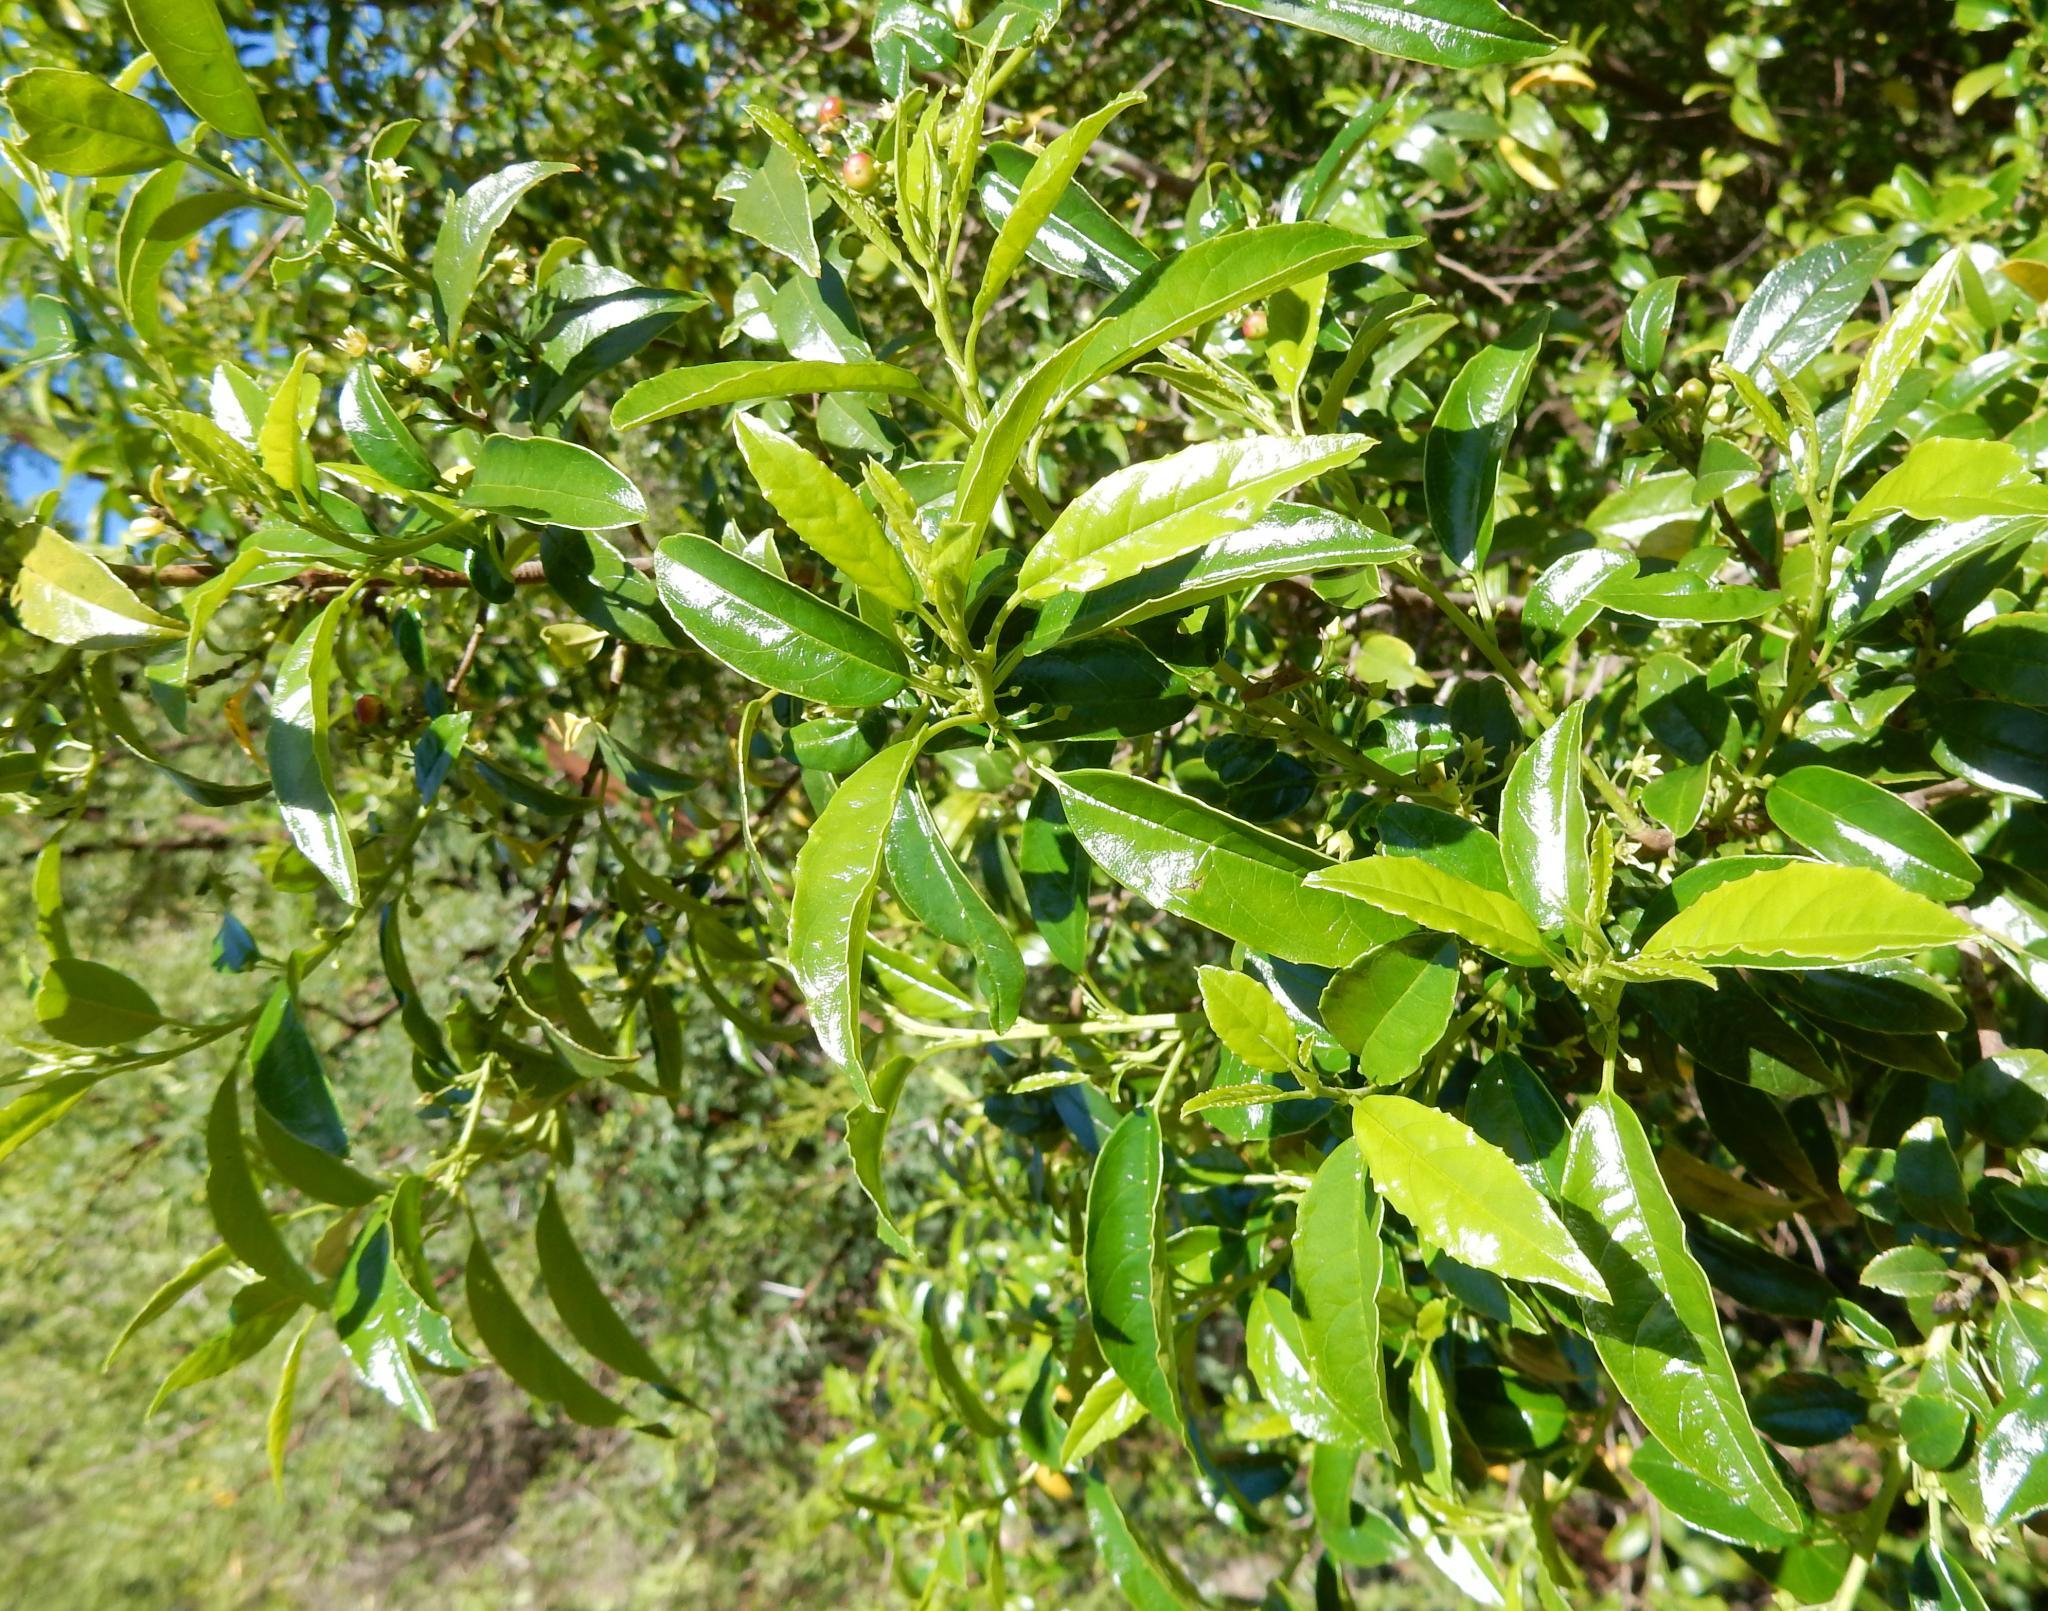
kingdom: Plantae
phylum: Tracheophyta
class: Magnoliopsida
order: Rosales
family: Rhamnaceae
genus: Rhamnus
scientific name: Rhamnus prinoides
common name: Dogwood
